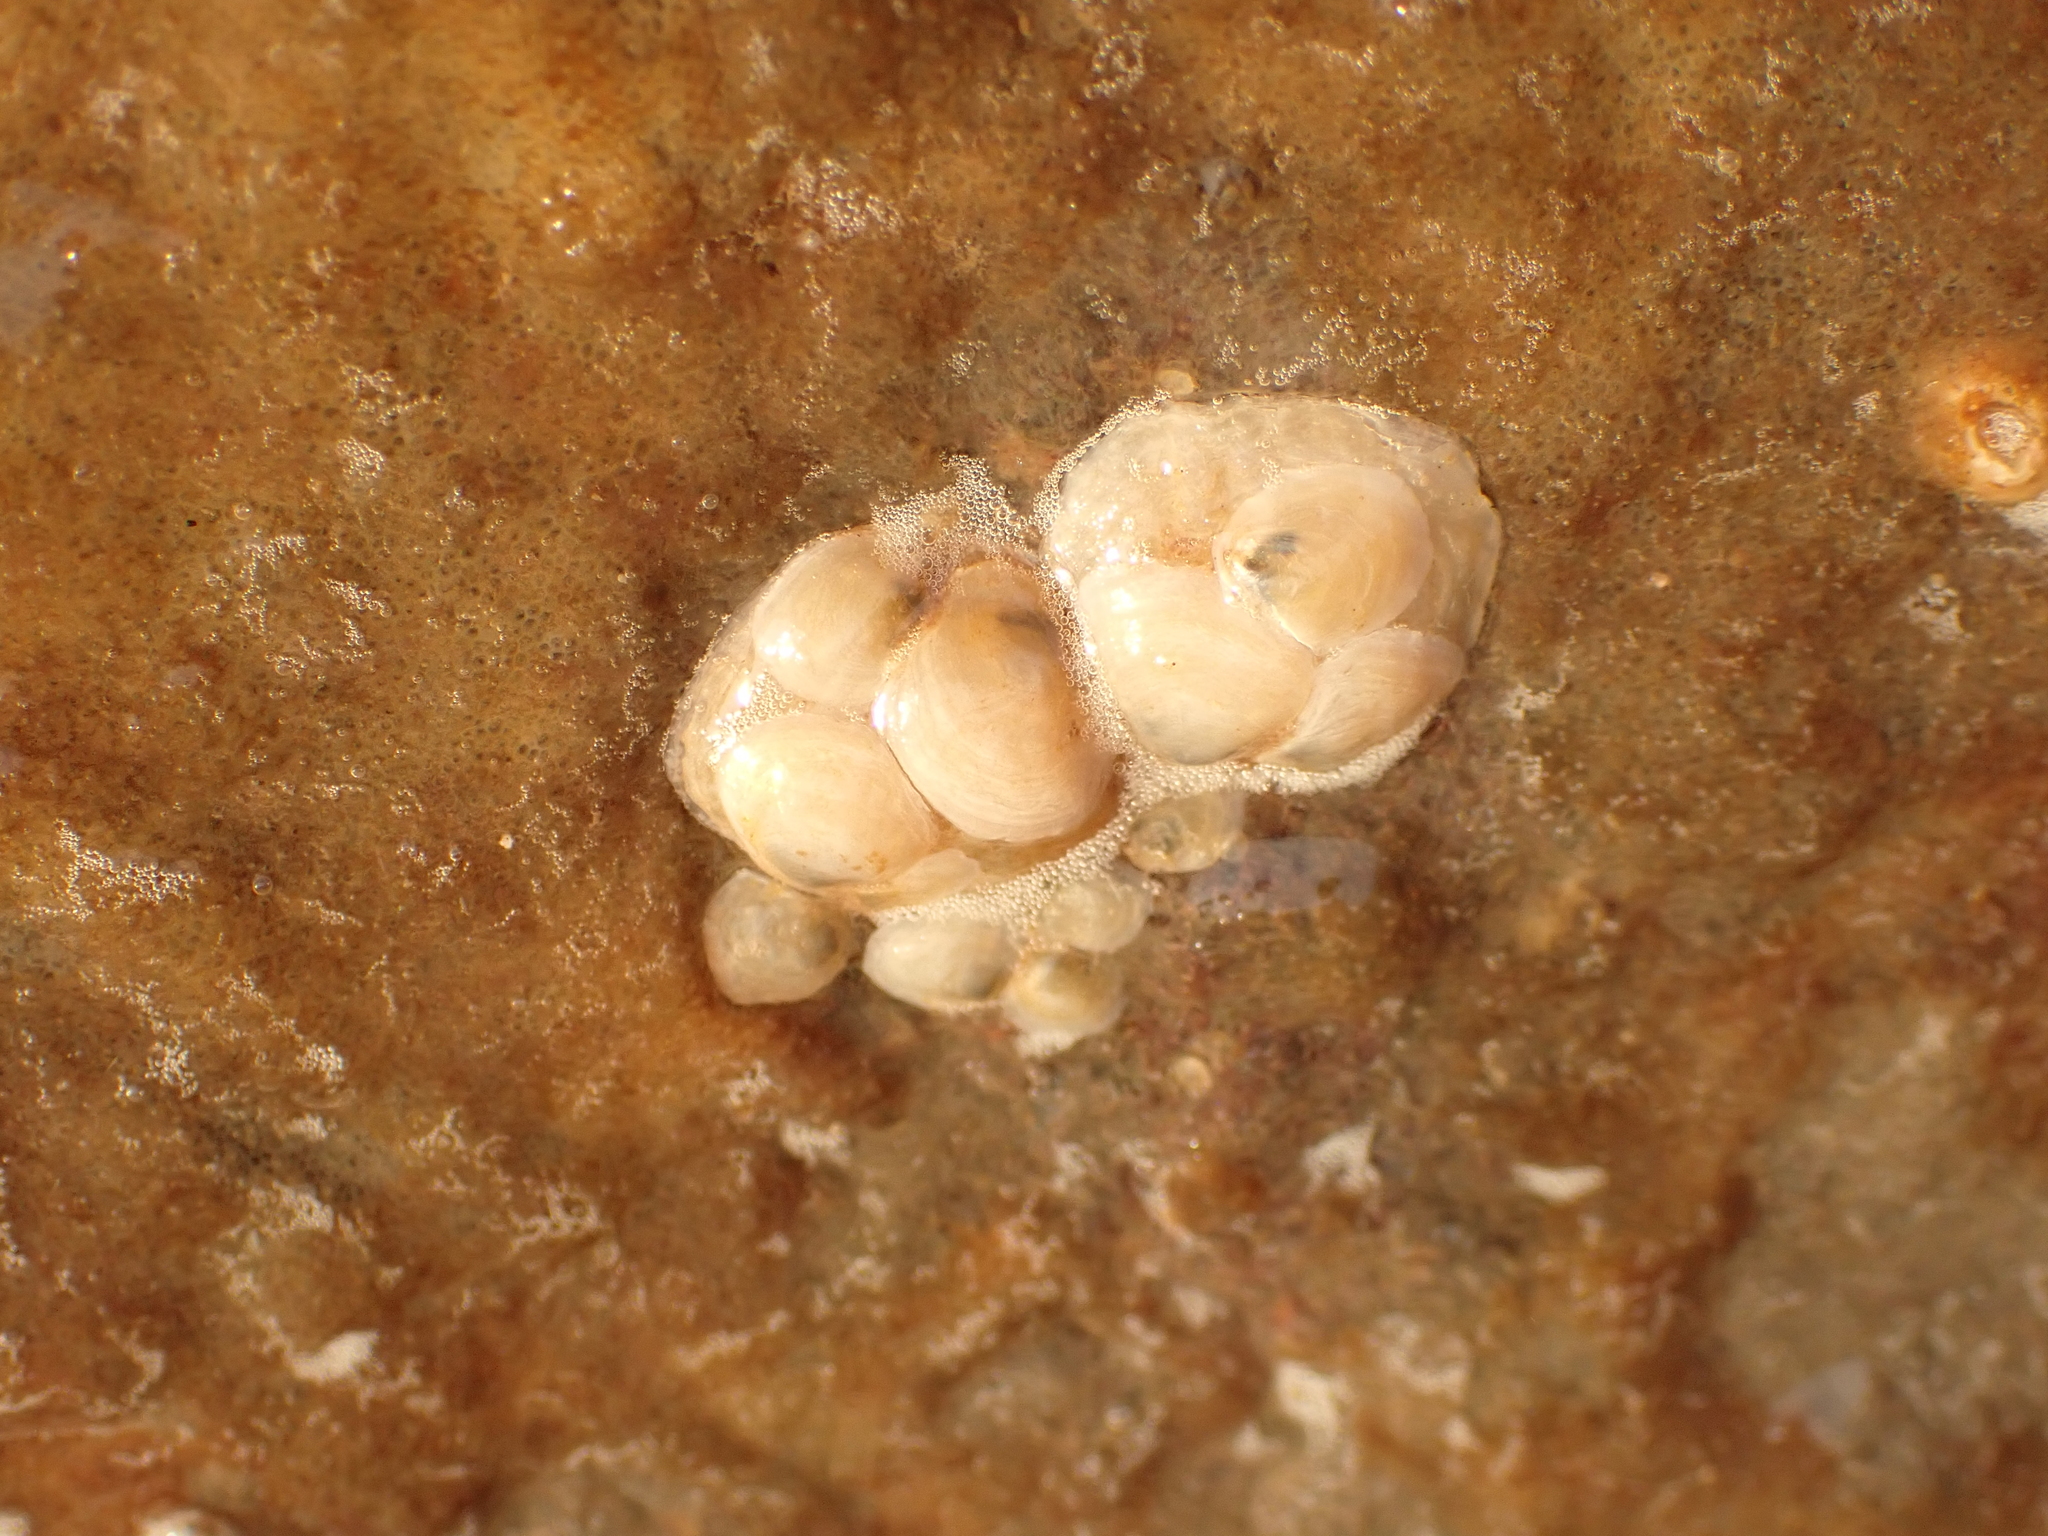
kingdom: Animalia
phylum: Mollusca
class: Gastropoda
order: Littorinimorpha
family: Calyptraeidae
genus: Crepidula
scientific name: Crepidula plana
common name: Eastern white slippersnail
